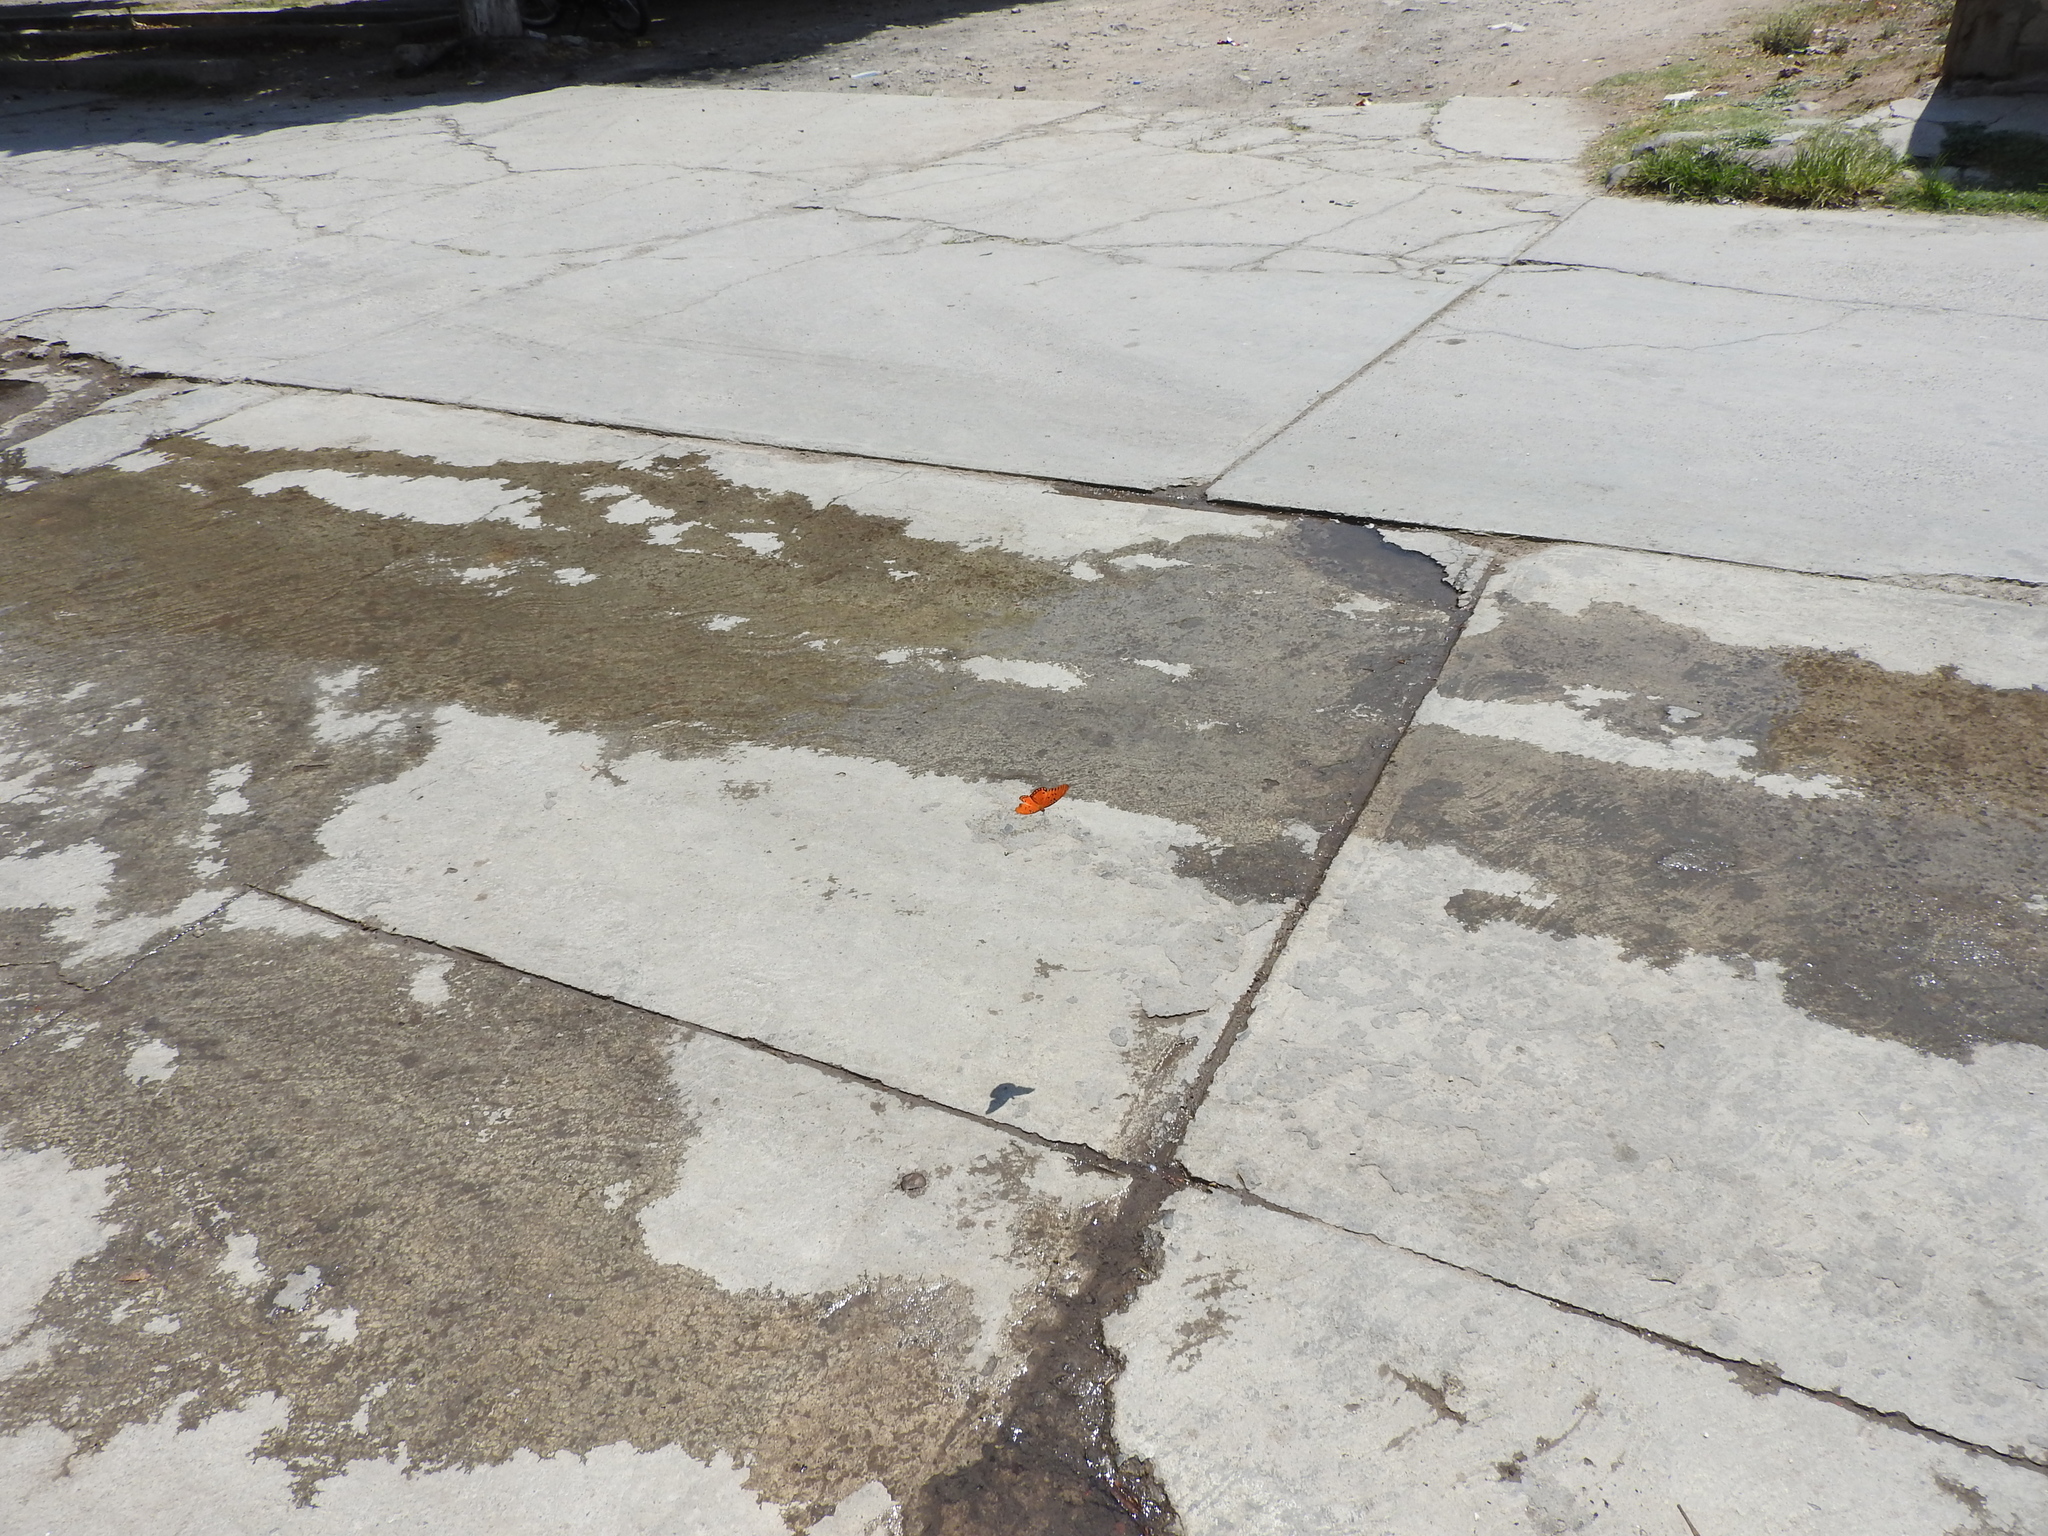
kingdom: Animalia
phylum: Arthropoda
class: Insecta
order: Lepidoptera
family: Nymphalidae
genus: Dione
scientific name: Dione vanillae
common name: Gulf fritillary
